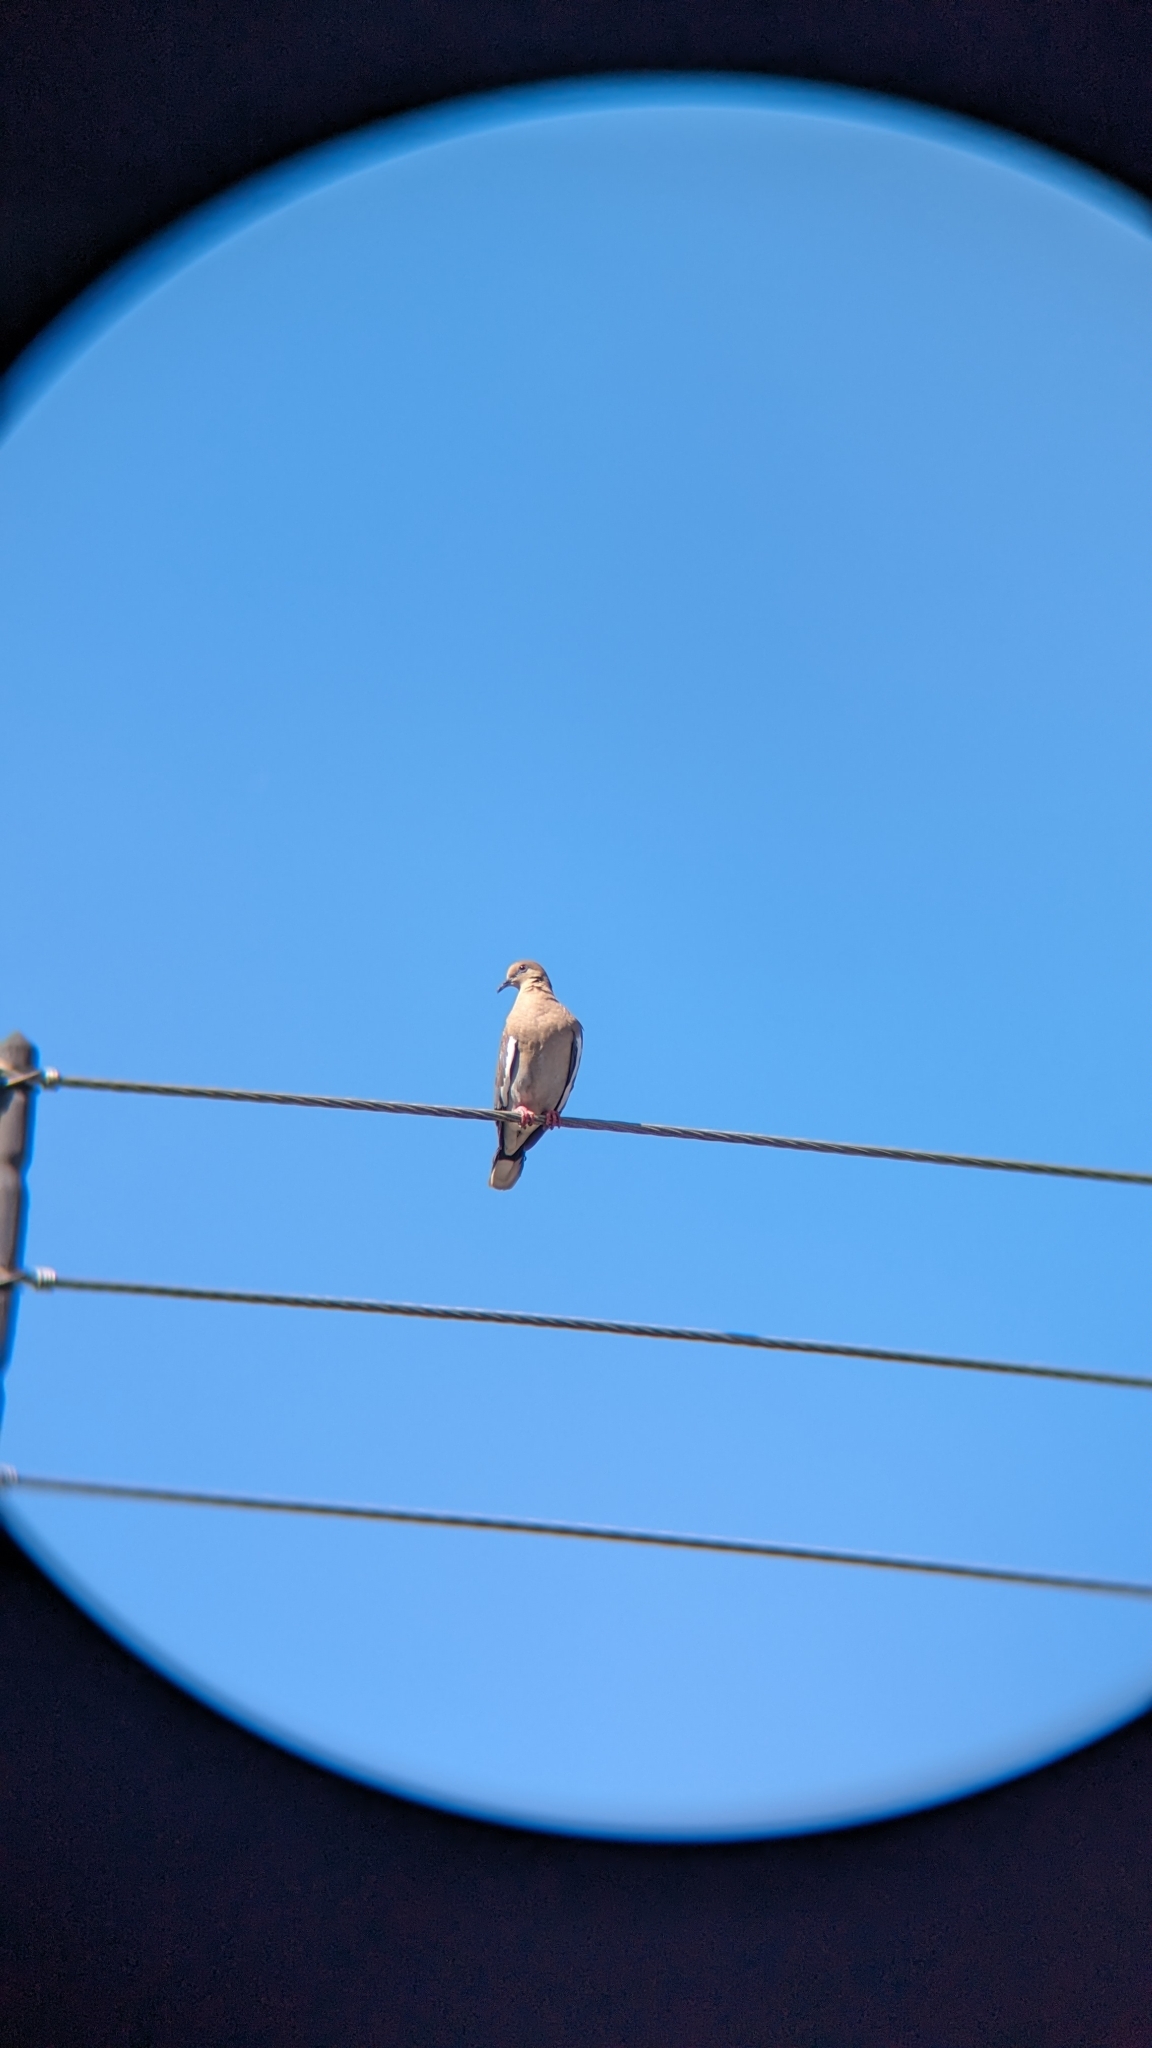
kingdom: Animalia
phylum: Chordata
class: Aves
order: Columbiformes
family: Columbidae
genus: Zenaida
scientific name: Zenaida asiatica
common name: White-winged dove
